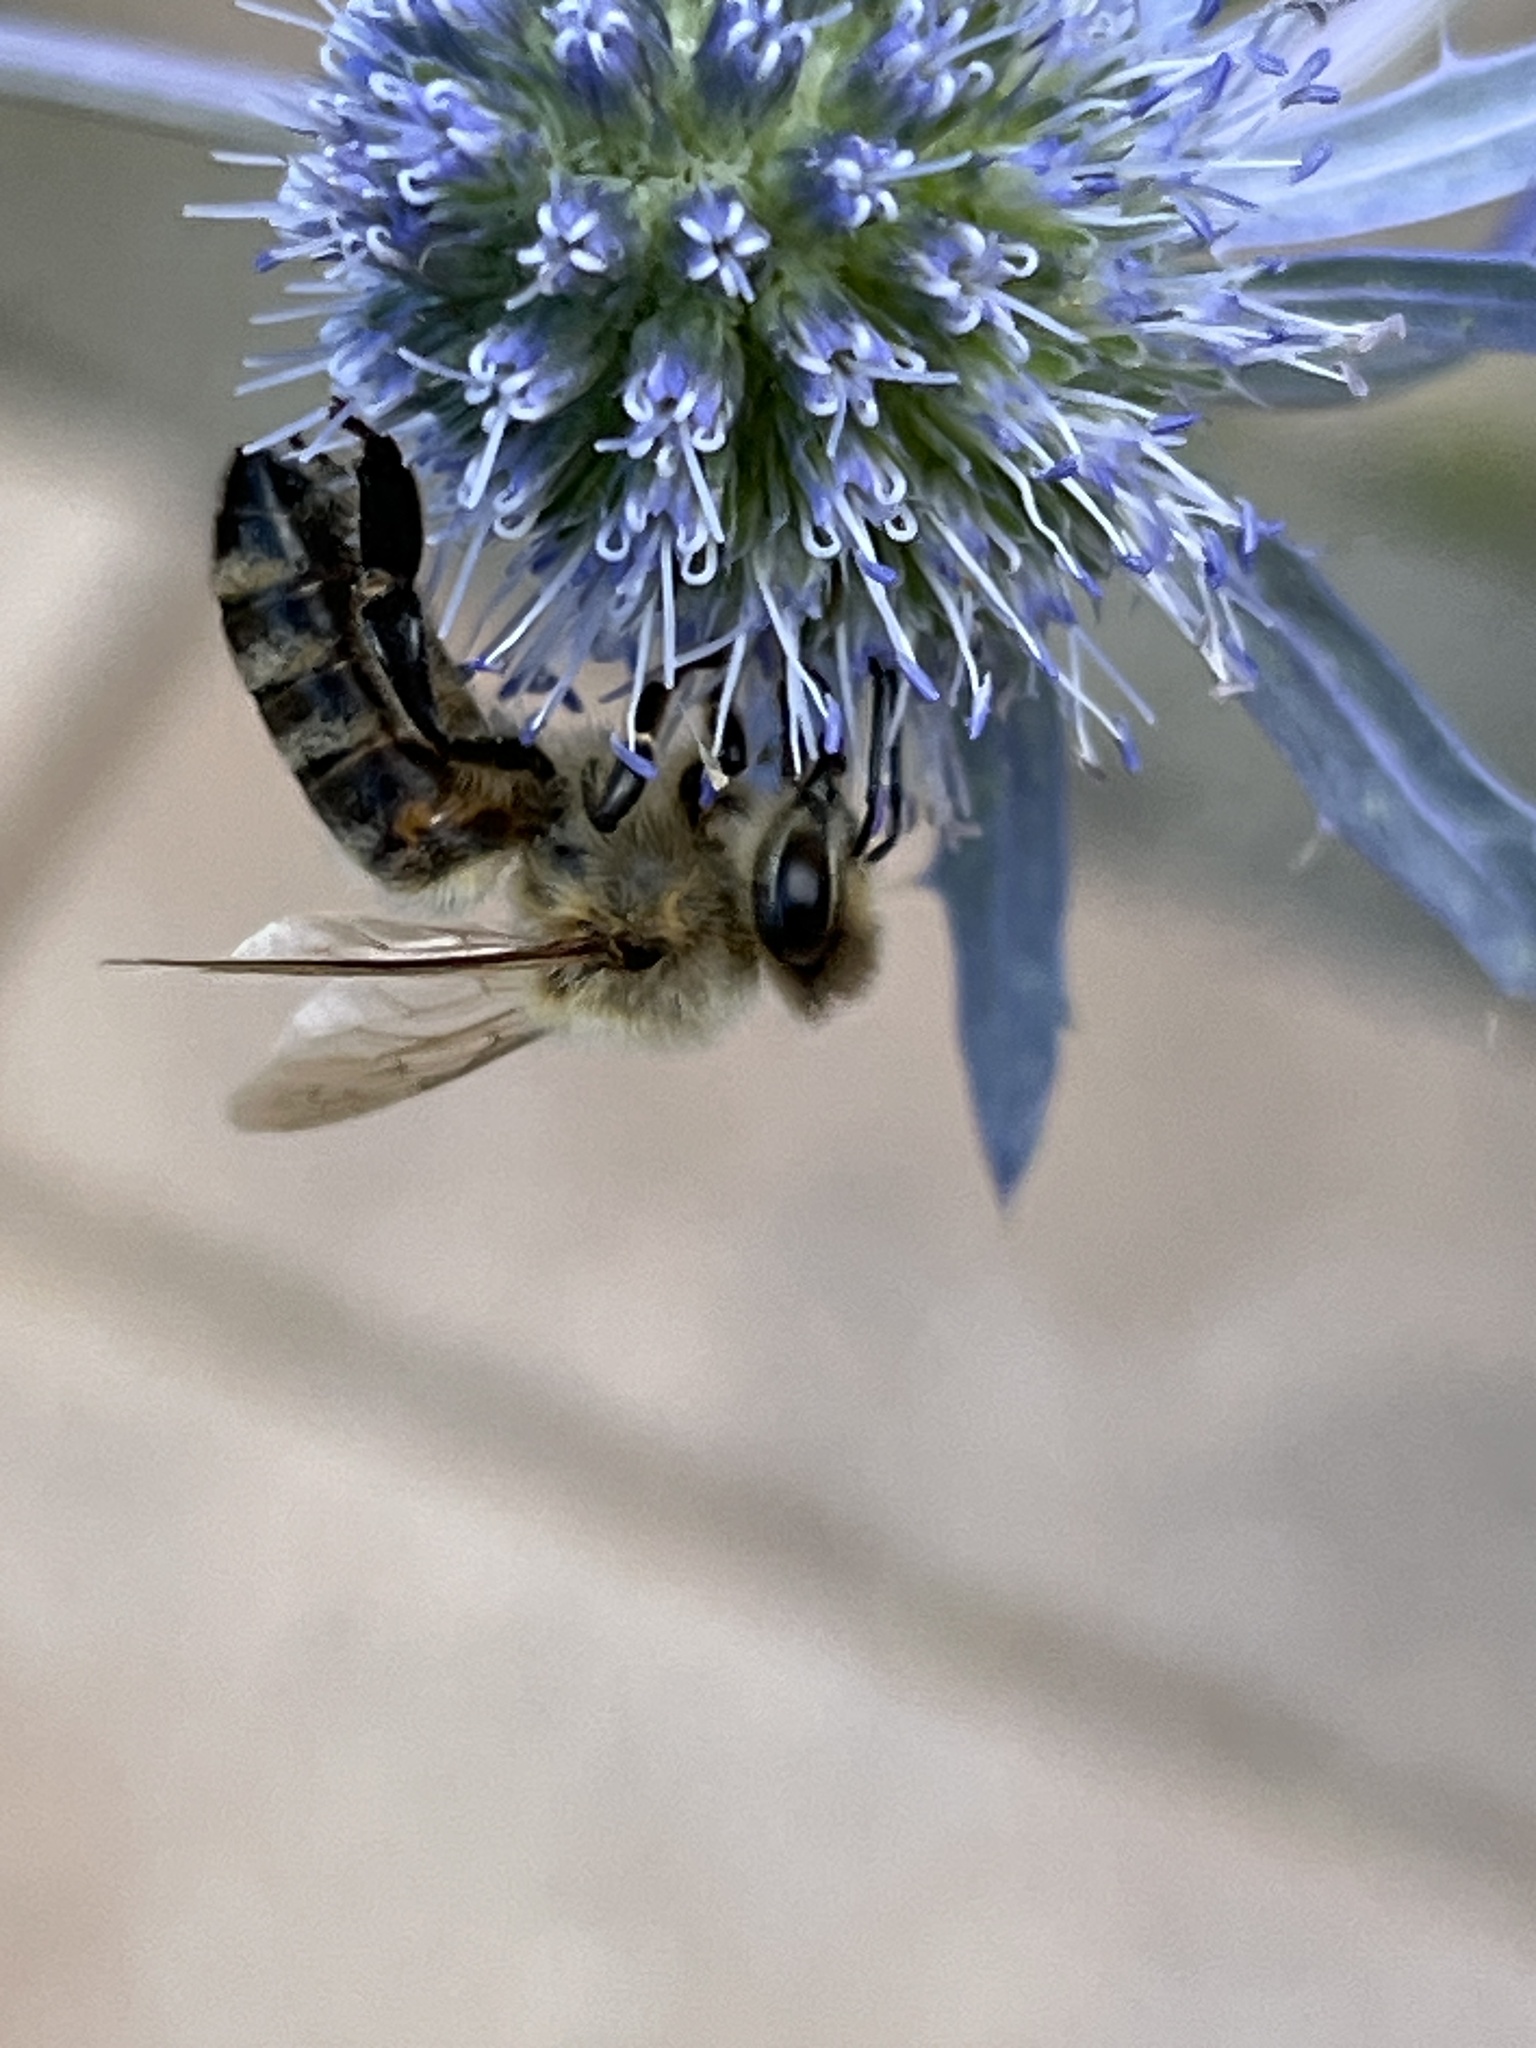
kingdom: Animalia
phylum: Arthropoda
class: Insecta
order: Hymenoptera
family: Apidae
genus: Apis
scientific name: Apis mellifera
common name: Honey bee
